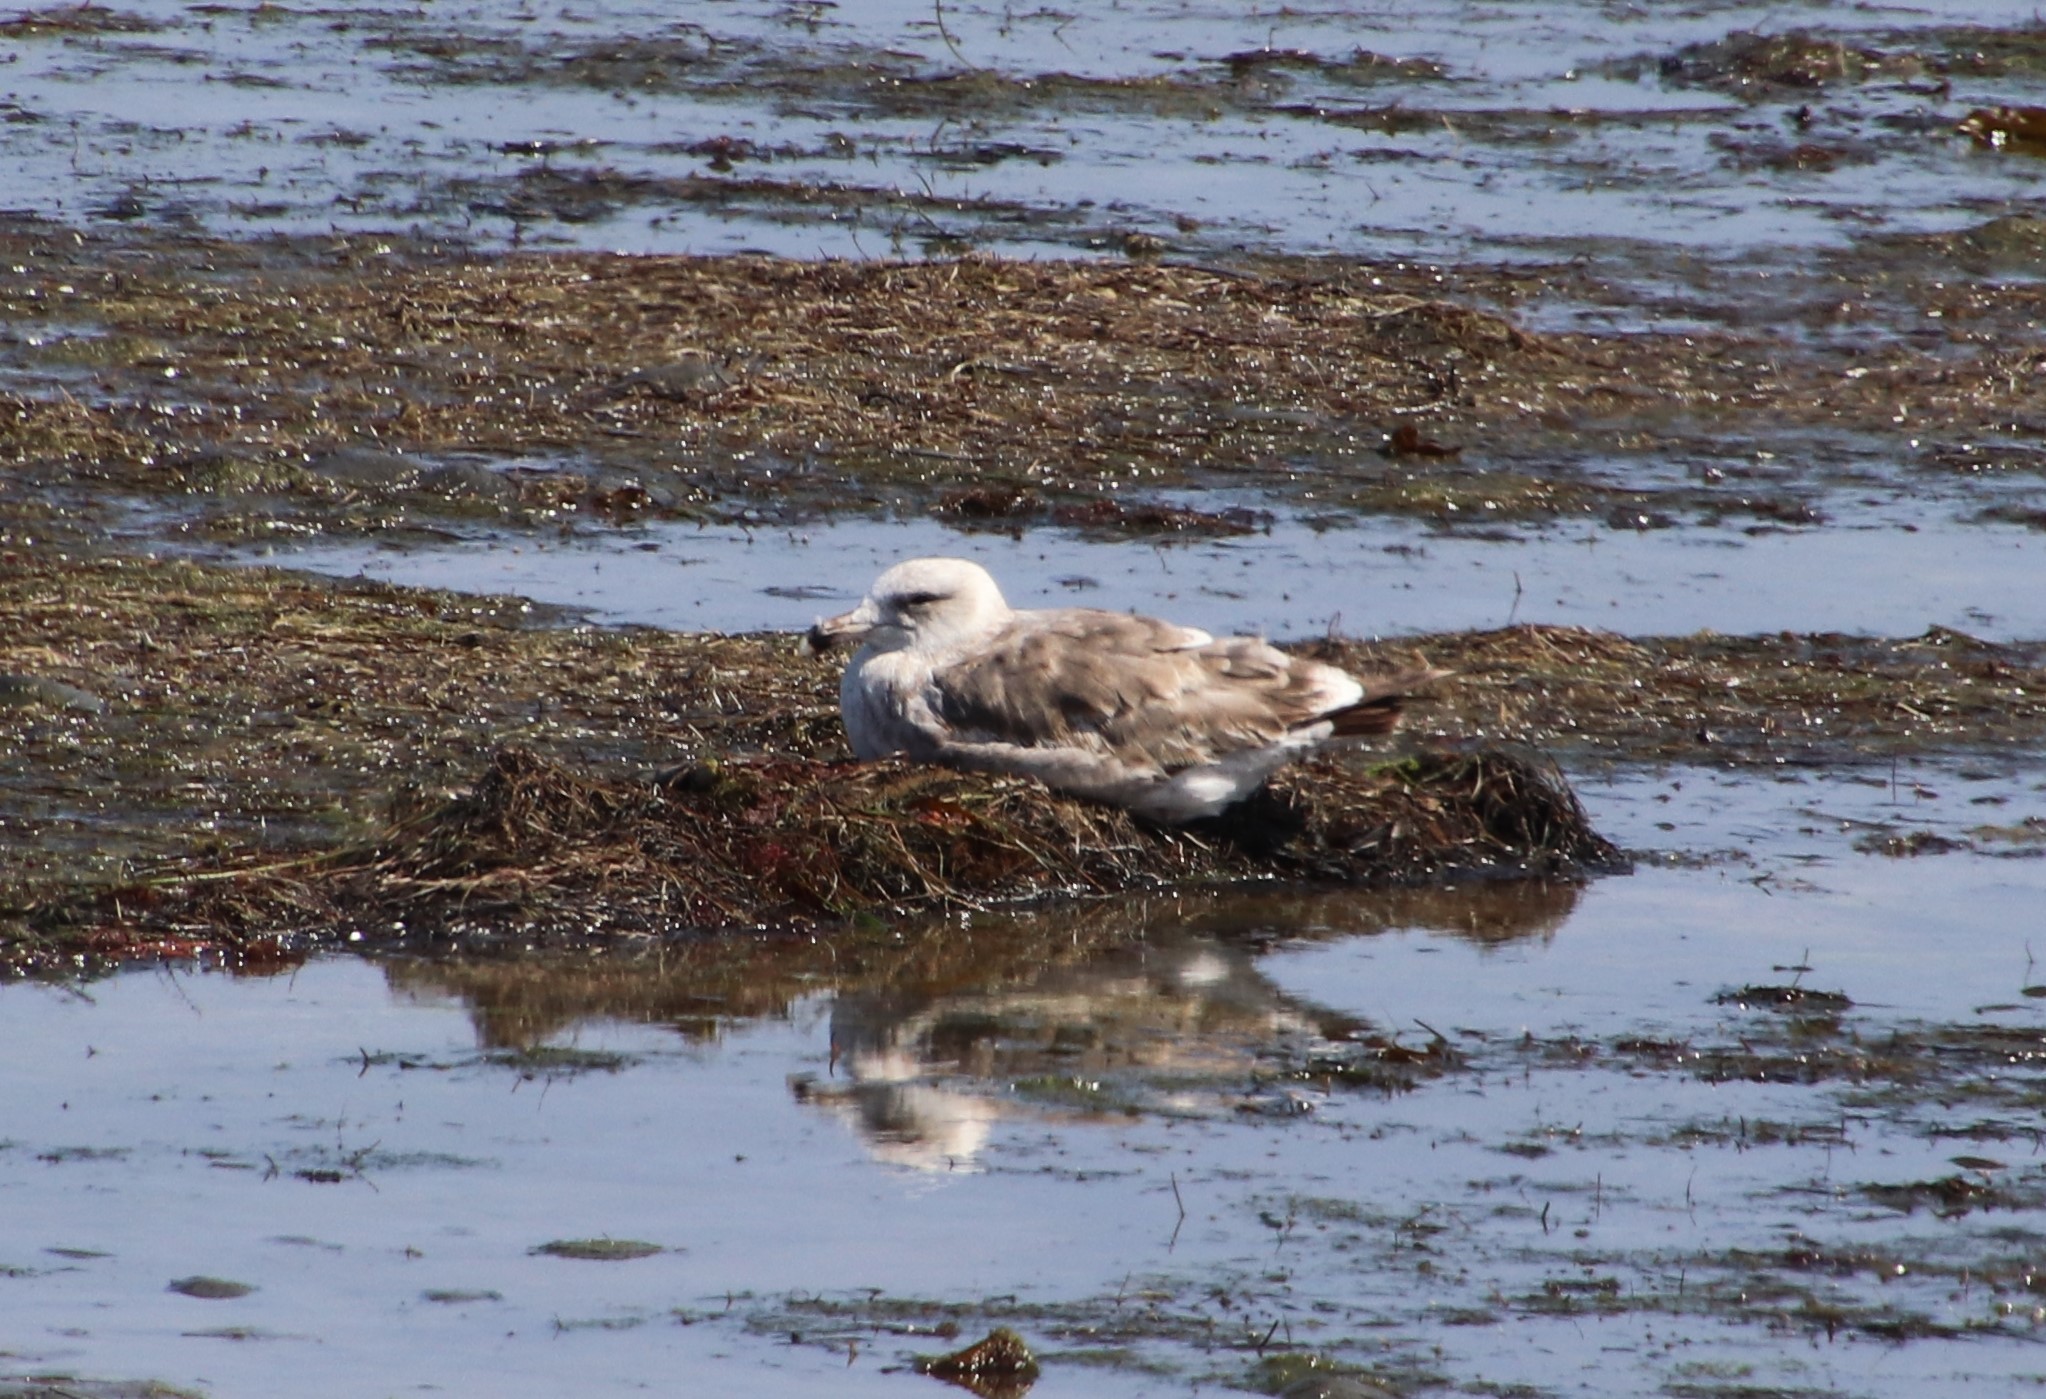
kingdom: Animalia
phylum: Chordata
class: Aves
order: Charadriiformes
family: Laridae
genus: Larus
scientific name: Larus occidentalis
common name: Western gull
